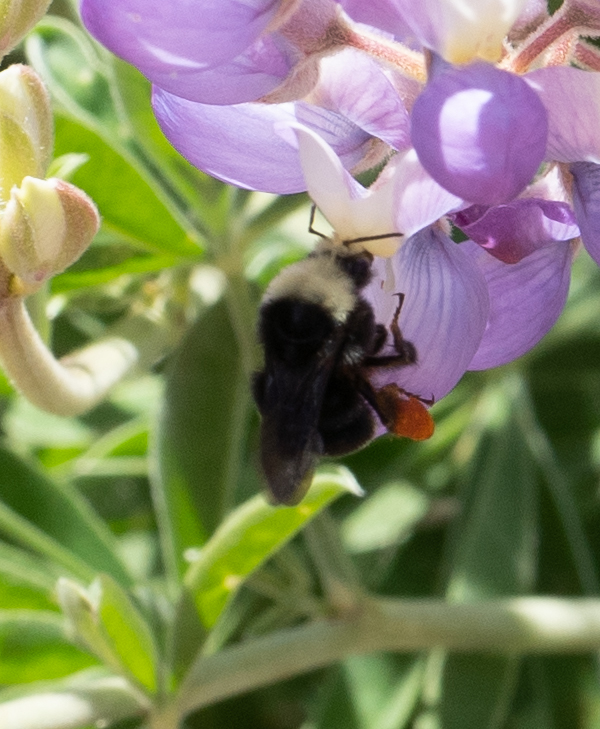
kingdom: Animalia
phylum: Arthropoda
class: Insecta
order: Hymenoptera
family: Apidae
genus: Bombus
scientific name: Bombus vosnesenskii
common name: Vosnesensky bumble bee
